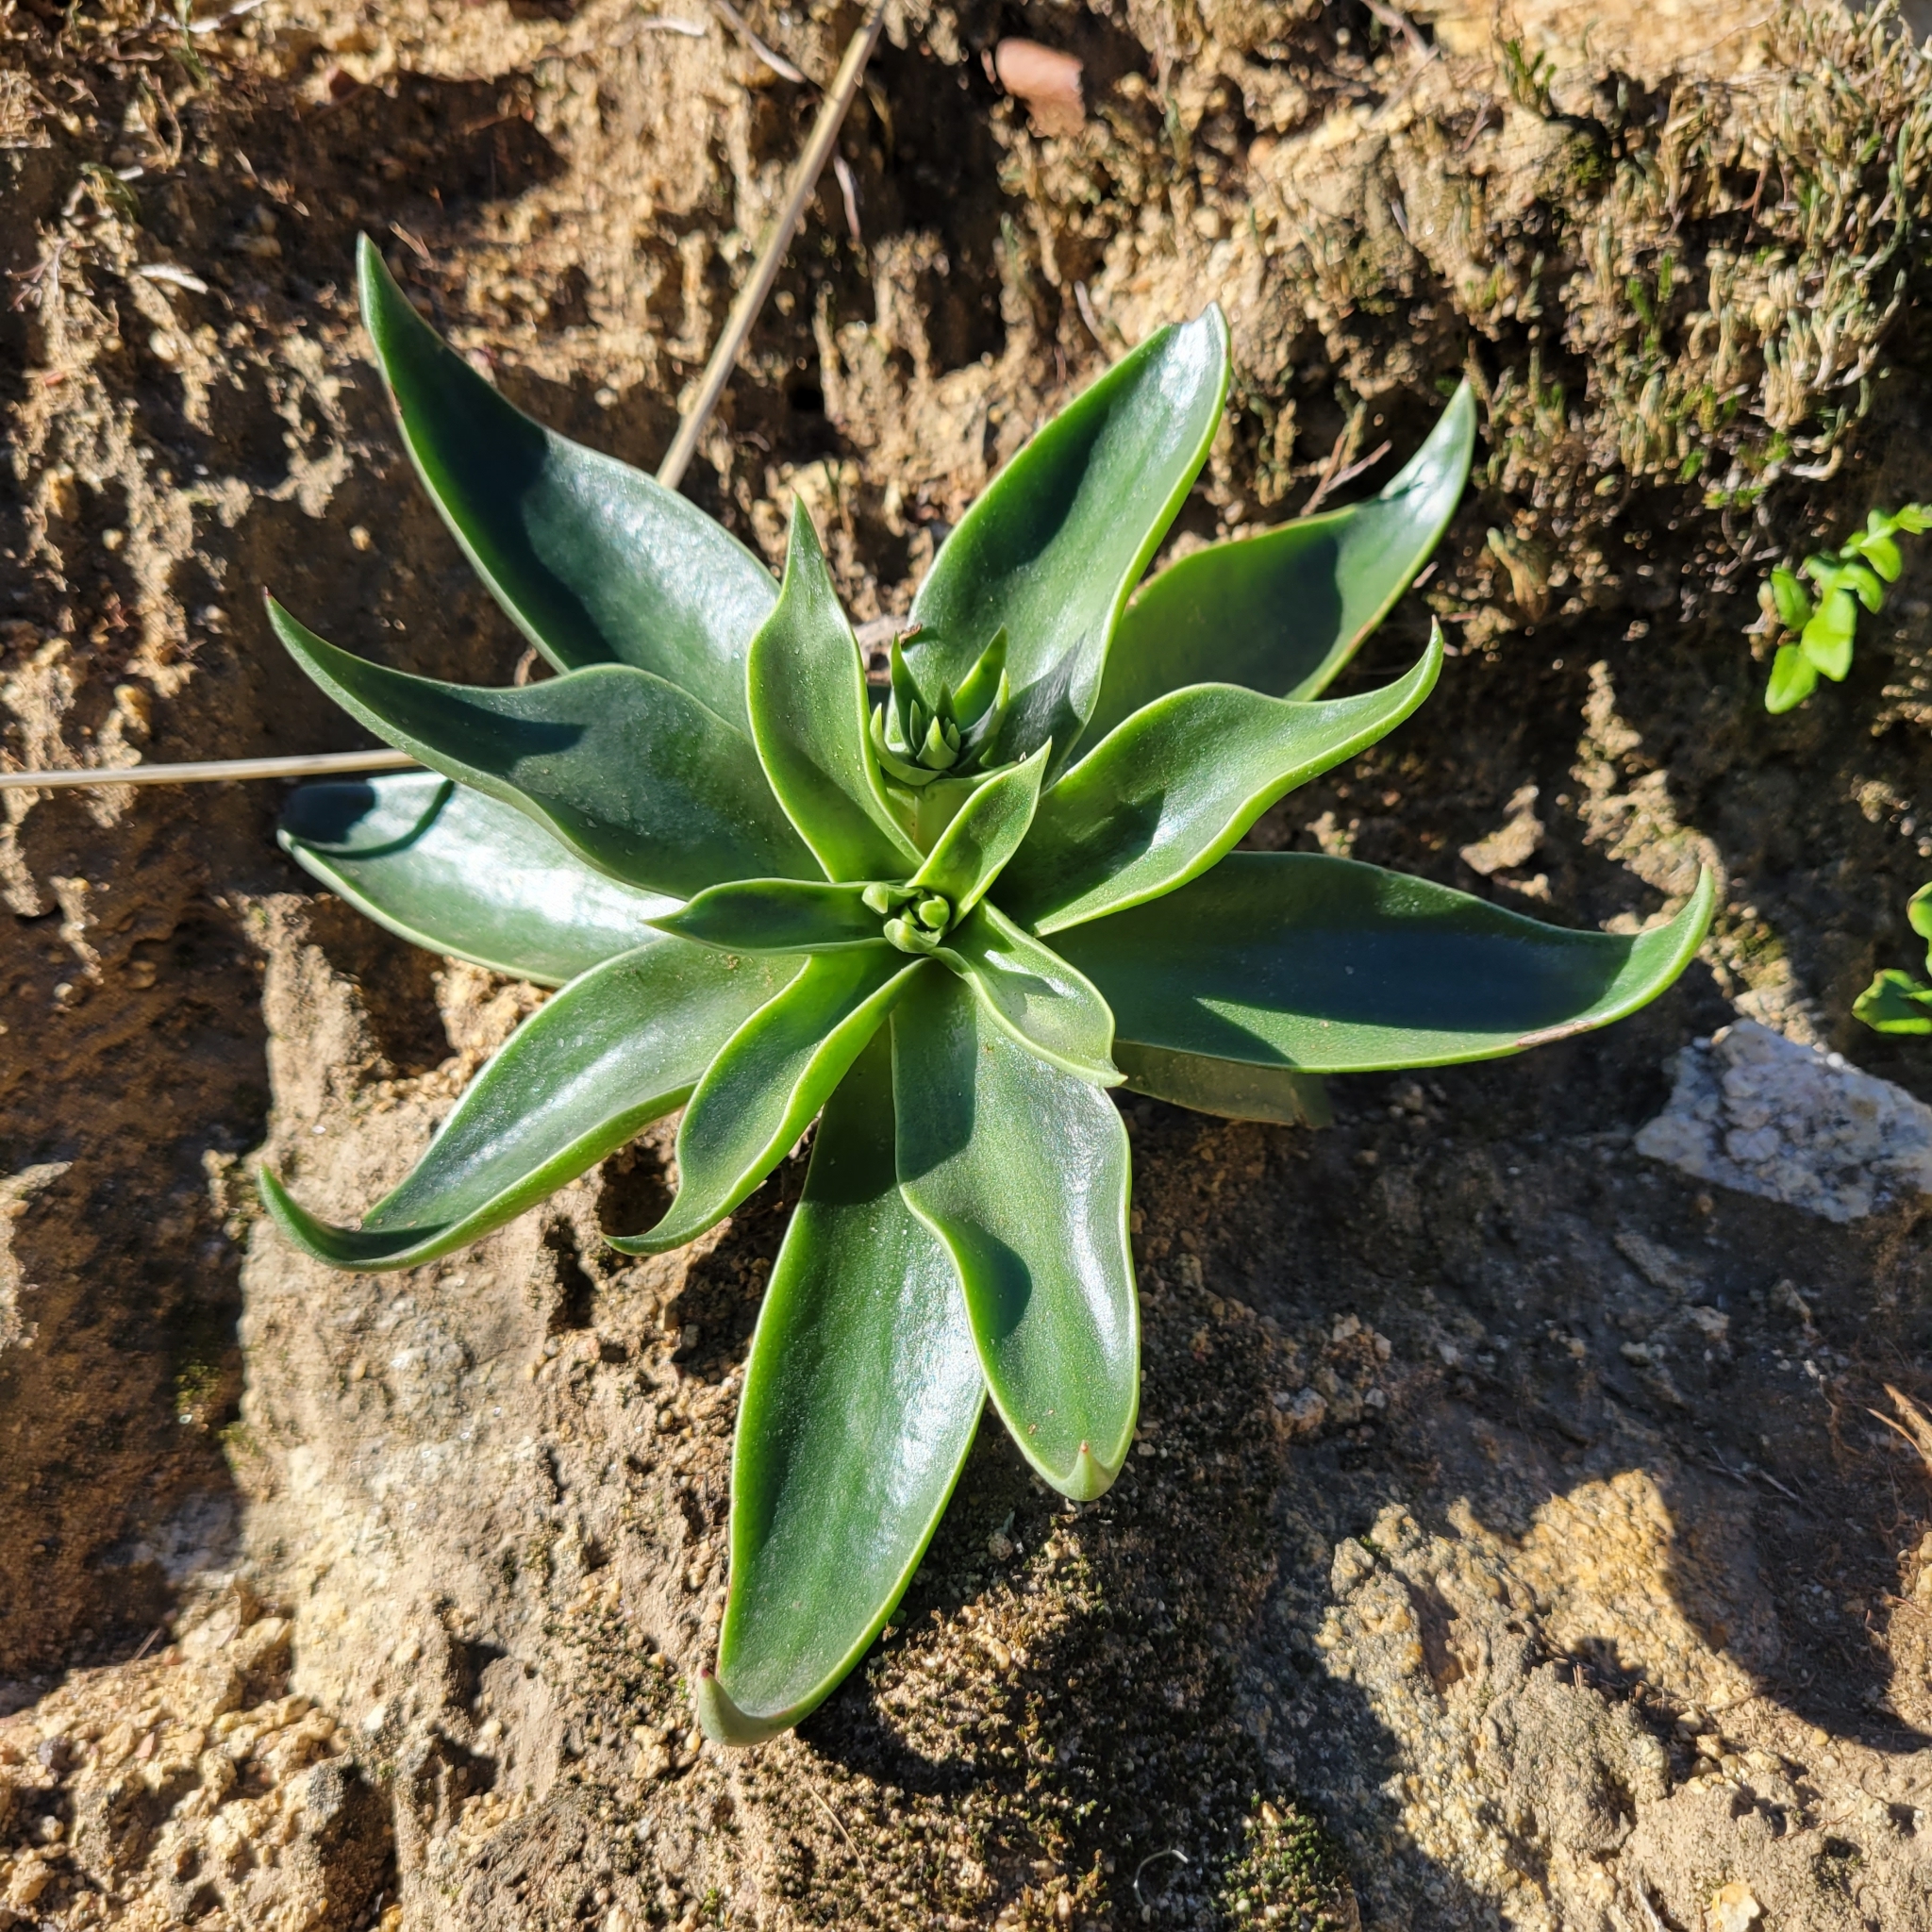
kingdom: Plantae
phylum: Tracheophyta
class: Magnoliopsida
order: Saxifragales
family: Crassulaceae
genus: Dudleya
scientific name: Dudleya lanceolata
